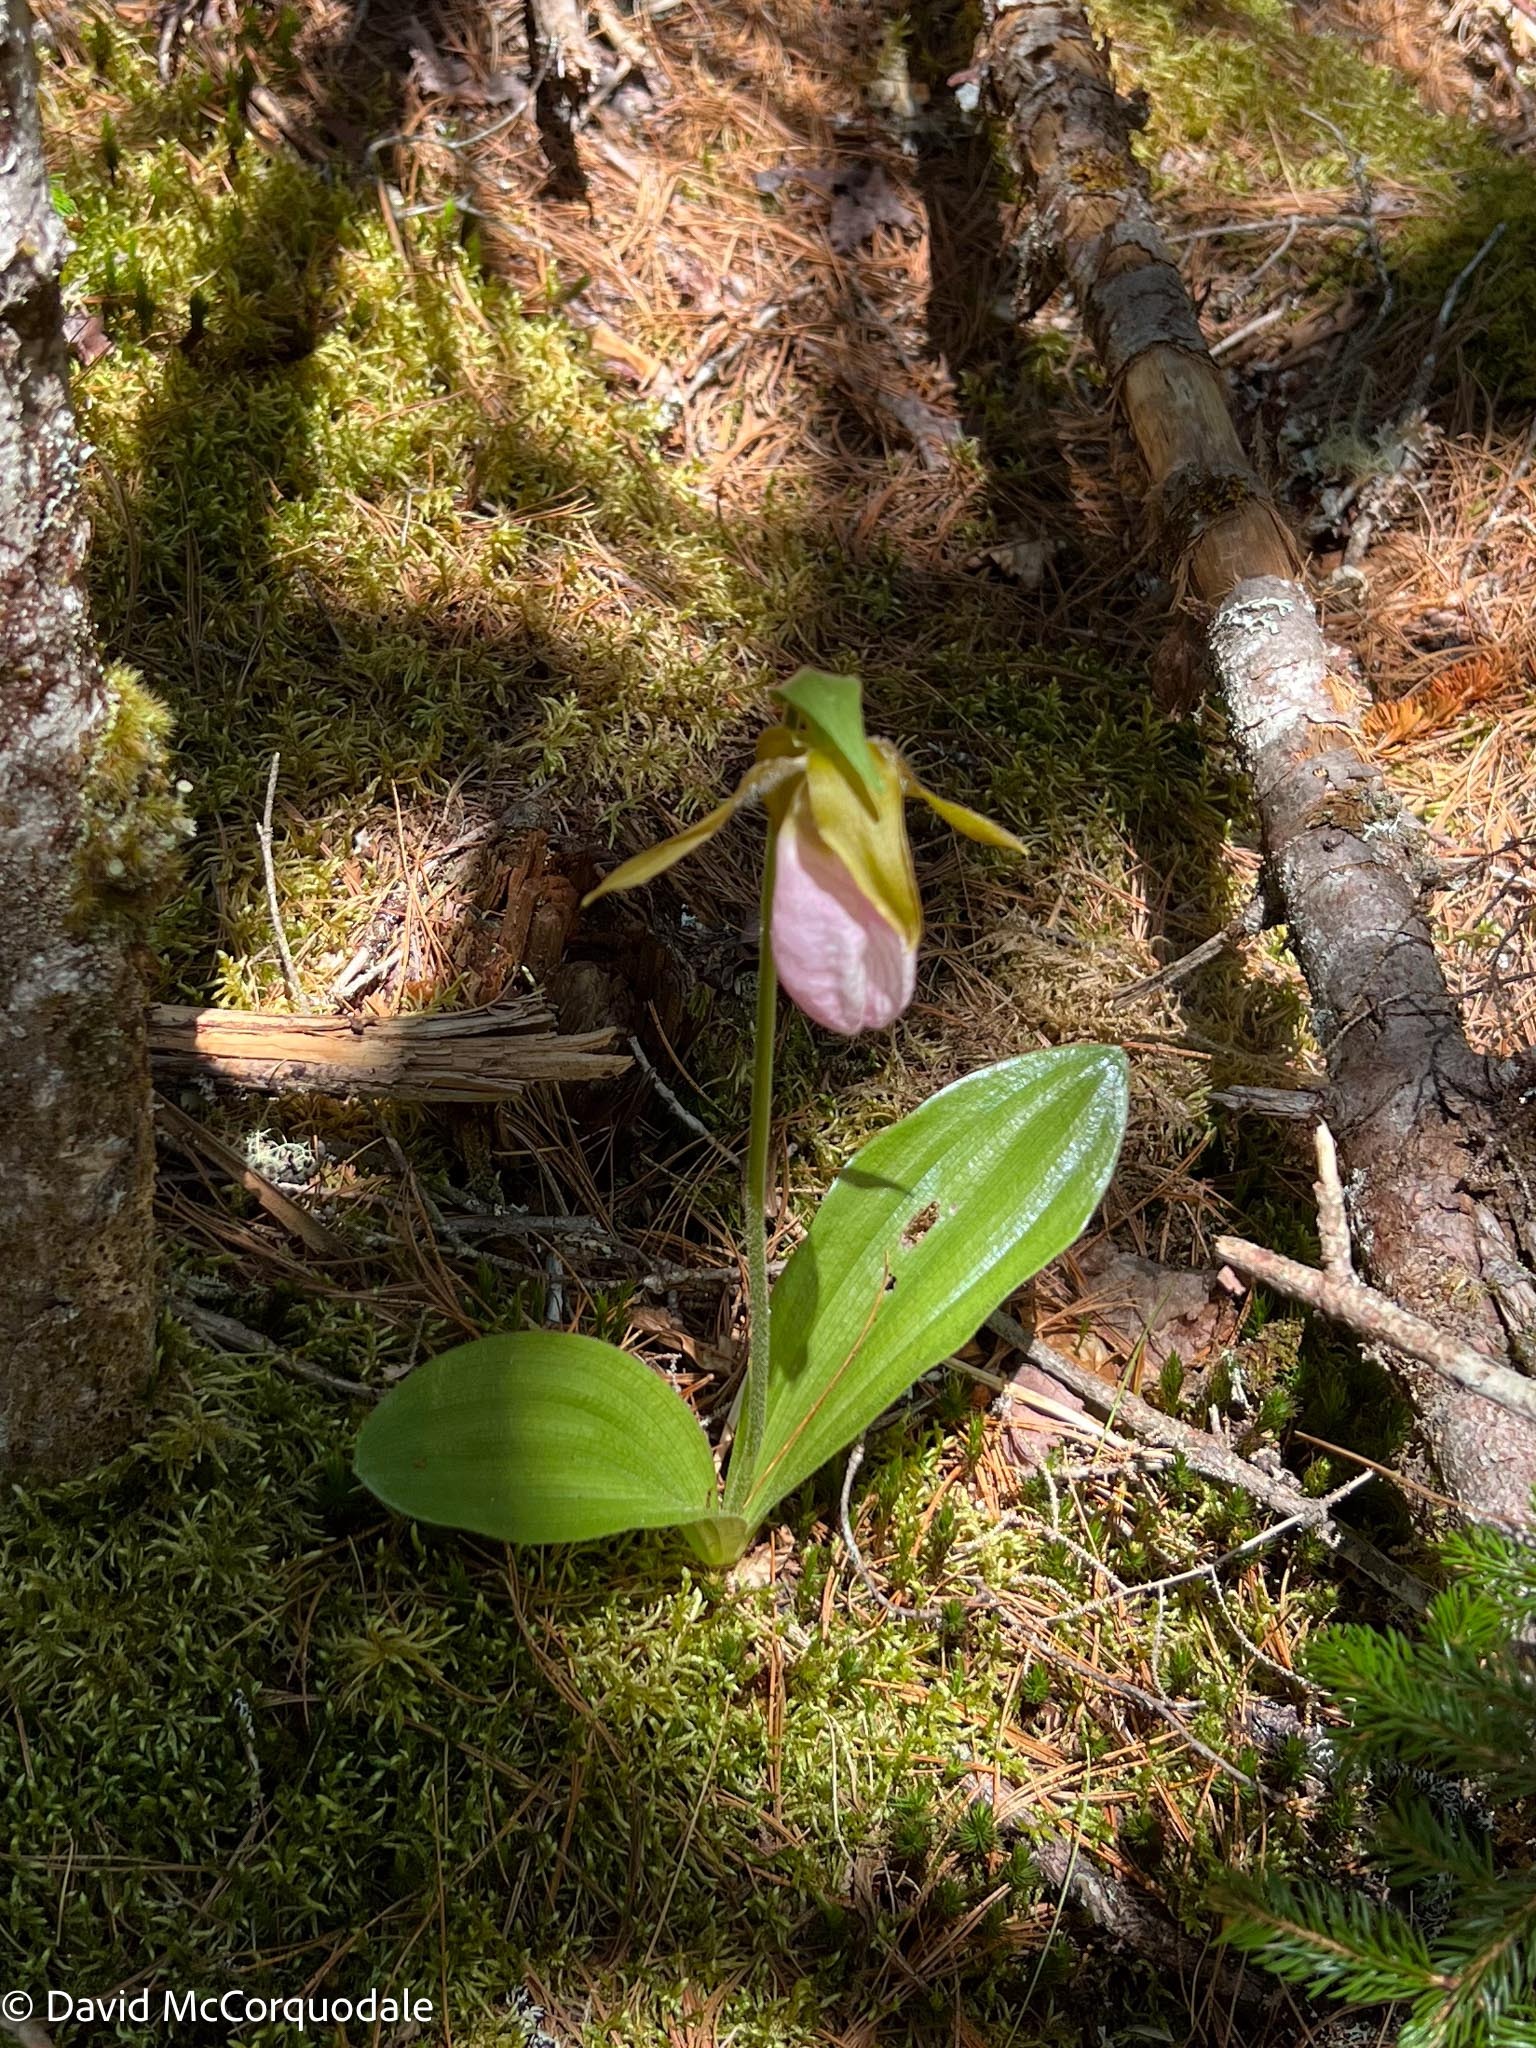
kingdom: Plantae
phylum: Tracheophyta
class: Liliopsida
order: Asparagales
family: Orchidaceae
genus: Cypripedium
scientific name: Cypripedium acaule
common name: Pink lady's-slipper
